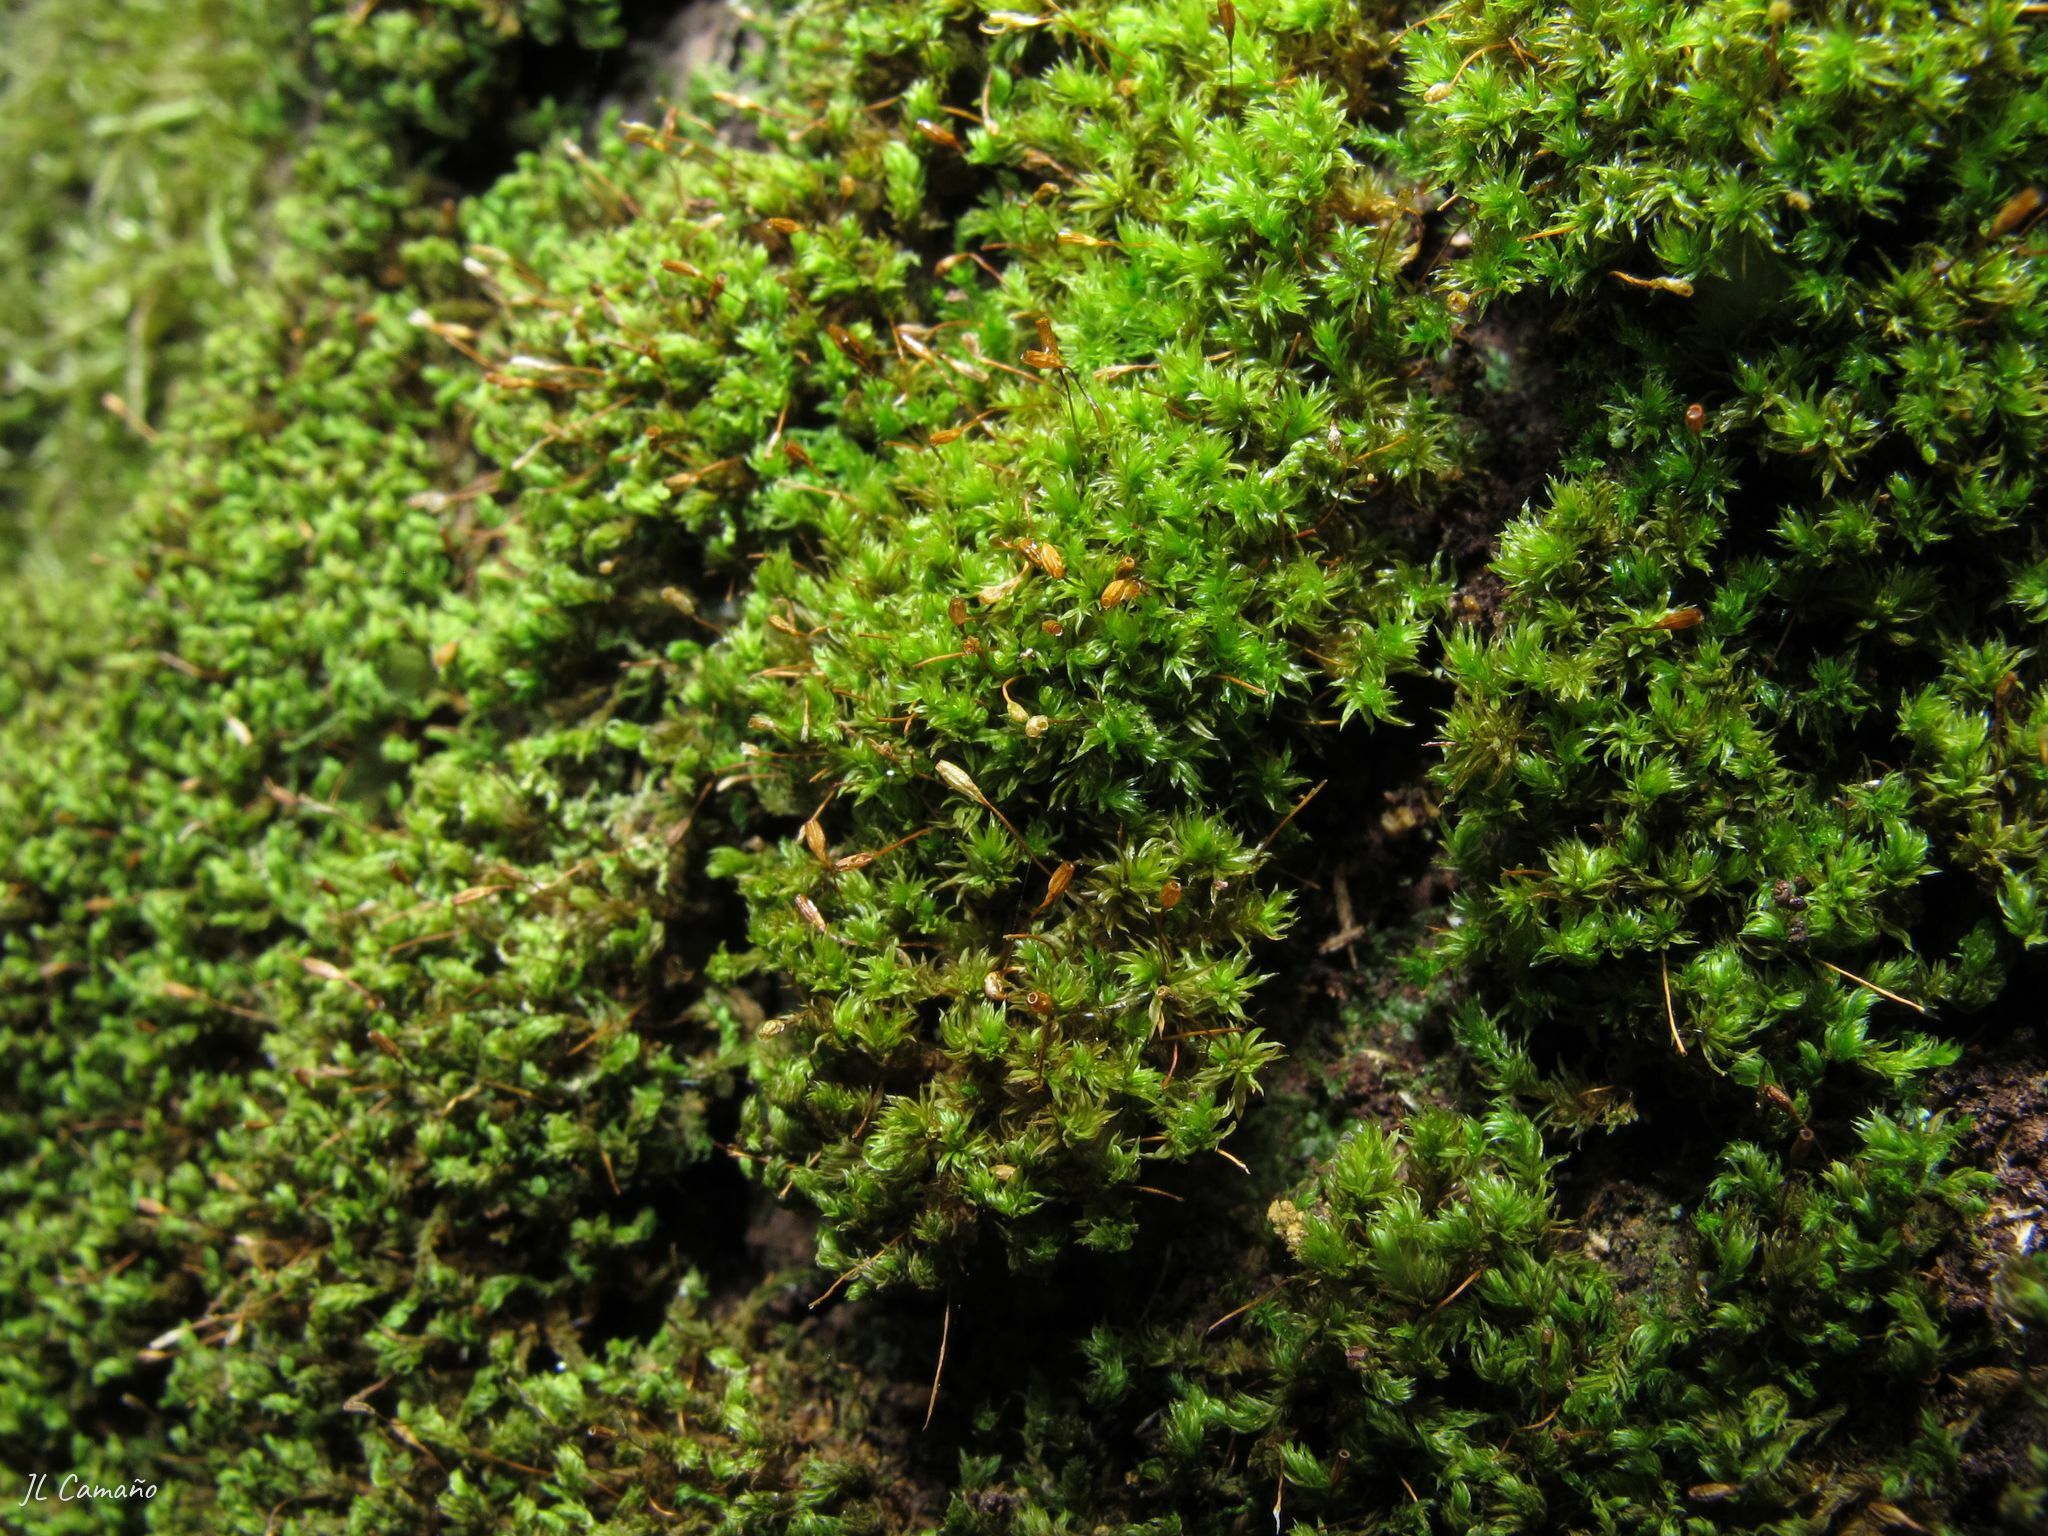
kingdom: Plantae
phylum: Bryophyta
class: Bryopsida
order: Orthotrichales
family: Orthotrichaceae
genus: Zygodon
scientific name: Zygodon viridissimus
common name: Green yoke moss
